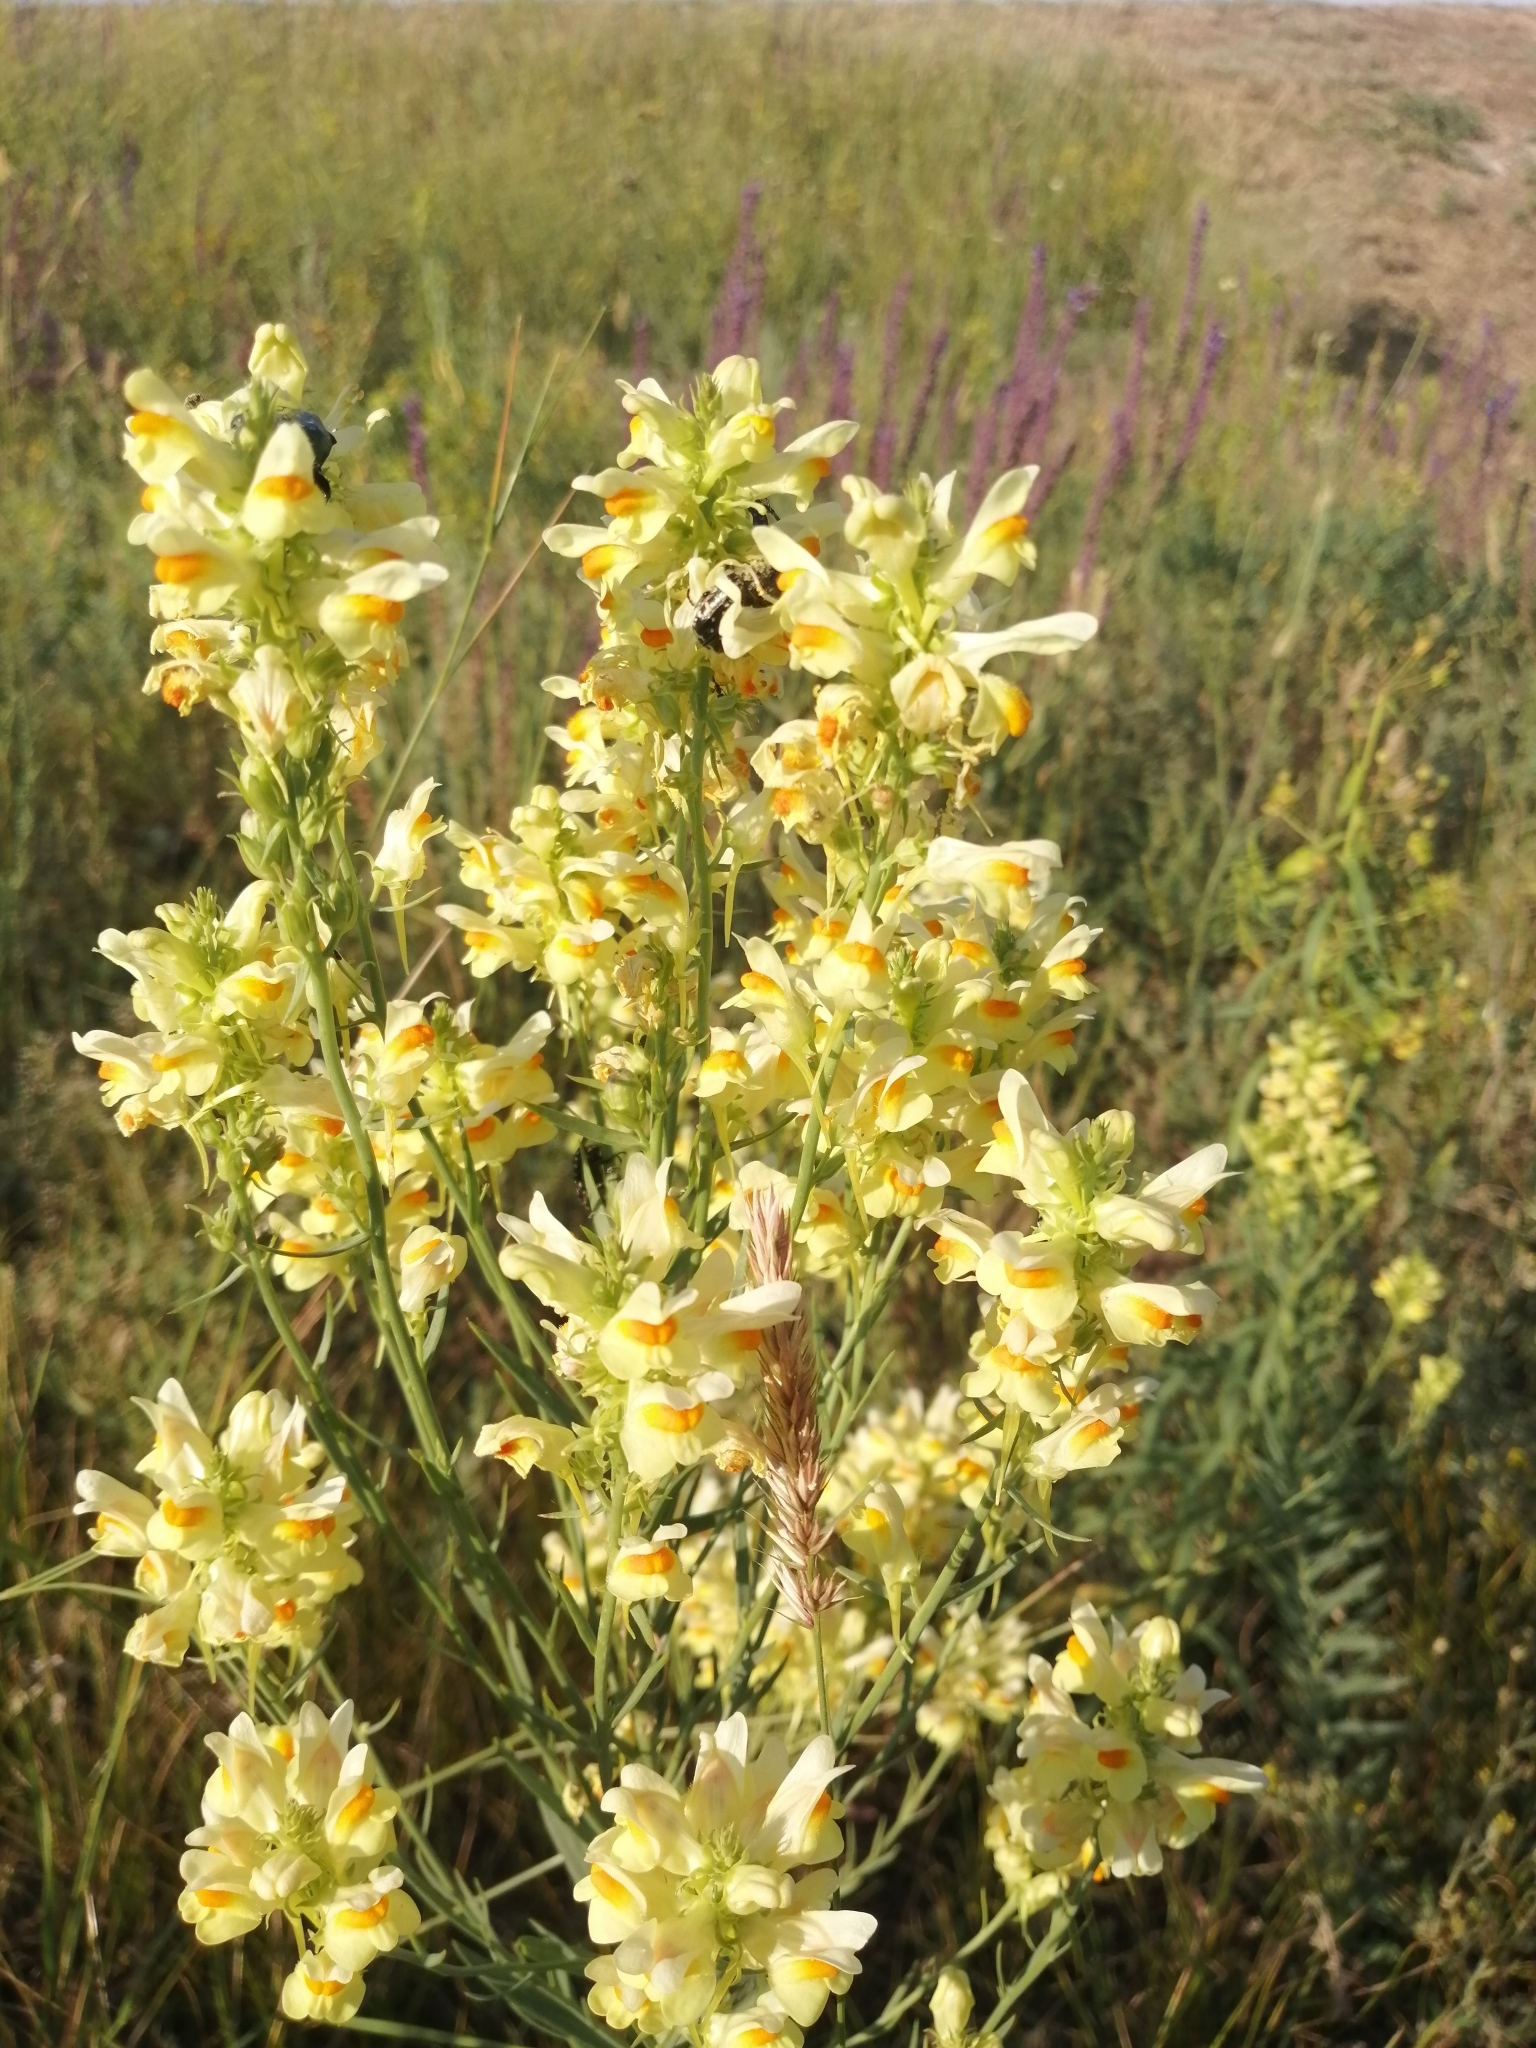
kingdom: Plantae
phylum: Tracheophyta
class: Magnoliopsida
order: Lamiales
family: Plantaginaceae
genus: Linaria
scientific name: Linaria biebersteinii
